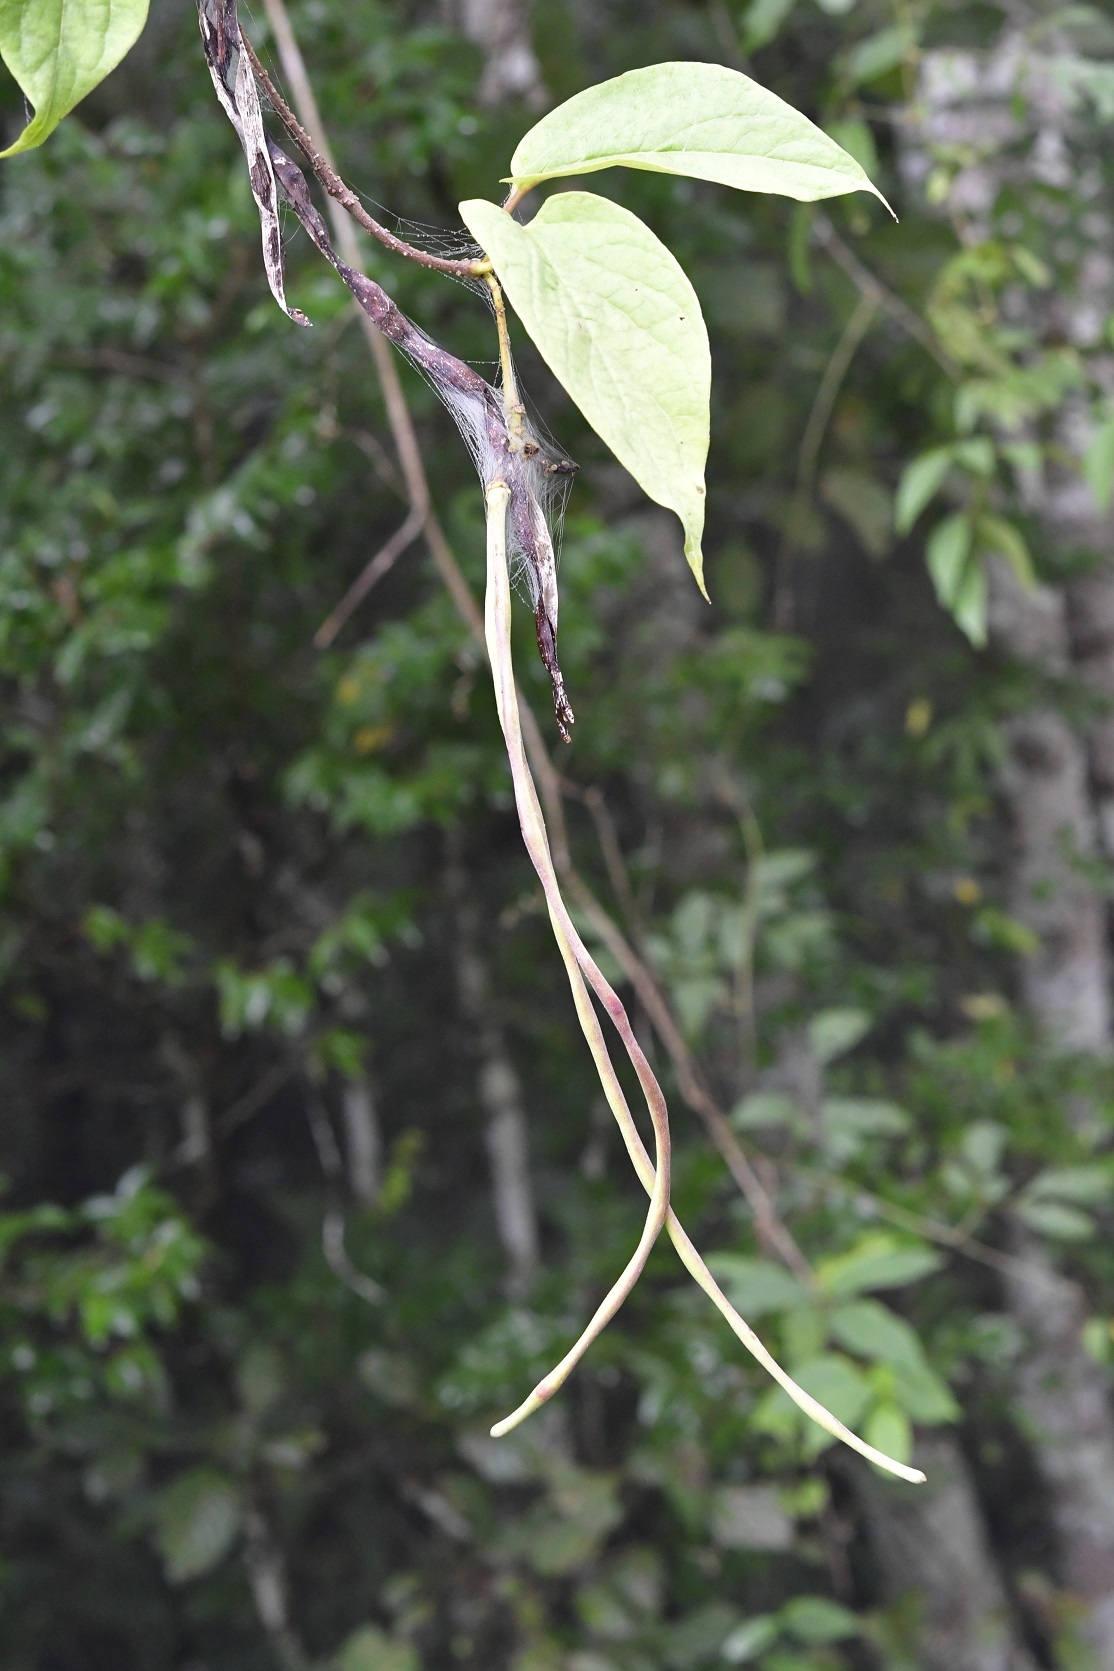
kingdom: Plantae
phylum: Tracheophyta
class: Magnoliopsida
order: Gentianales
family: Apocynaceae
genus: Mandevilla
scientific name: Mandevilla subsessilis
